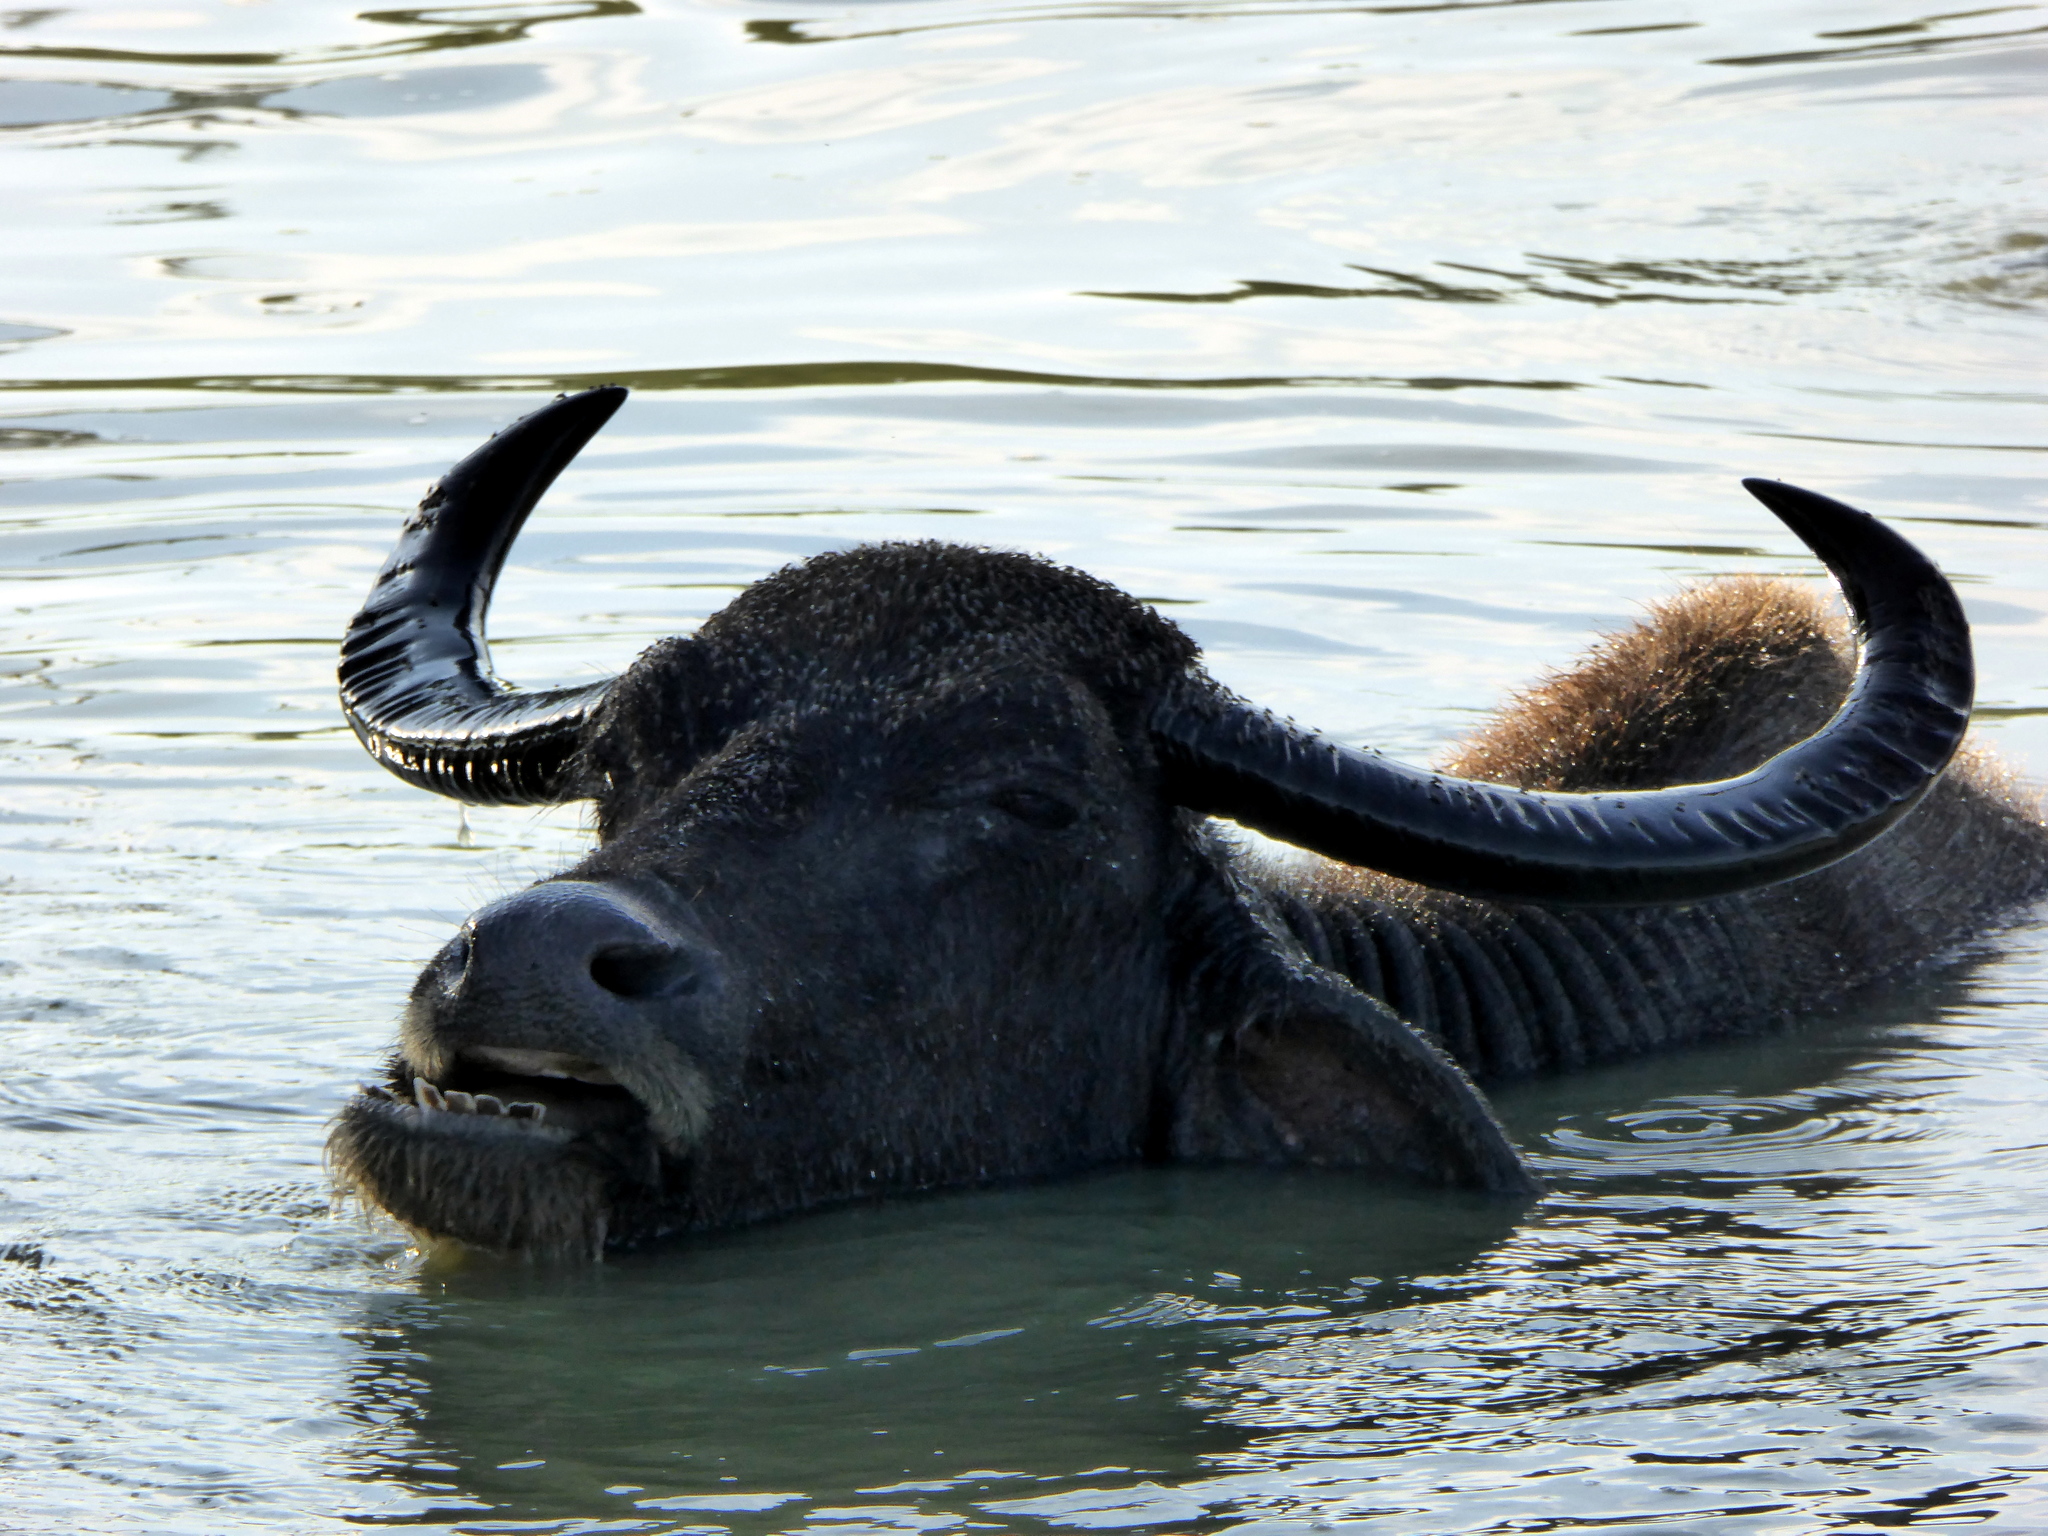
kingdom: Animalia
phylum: Chordata
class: Mammalia
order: Artiodactyla
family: Bovidae
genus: Bubalus
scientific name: Bubalus bubalis
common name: Water buffalo
